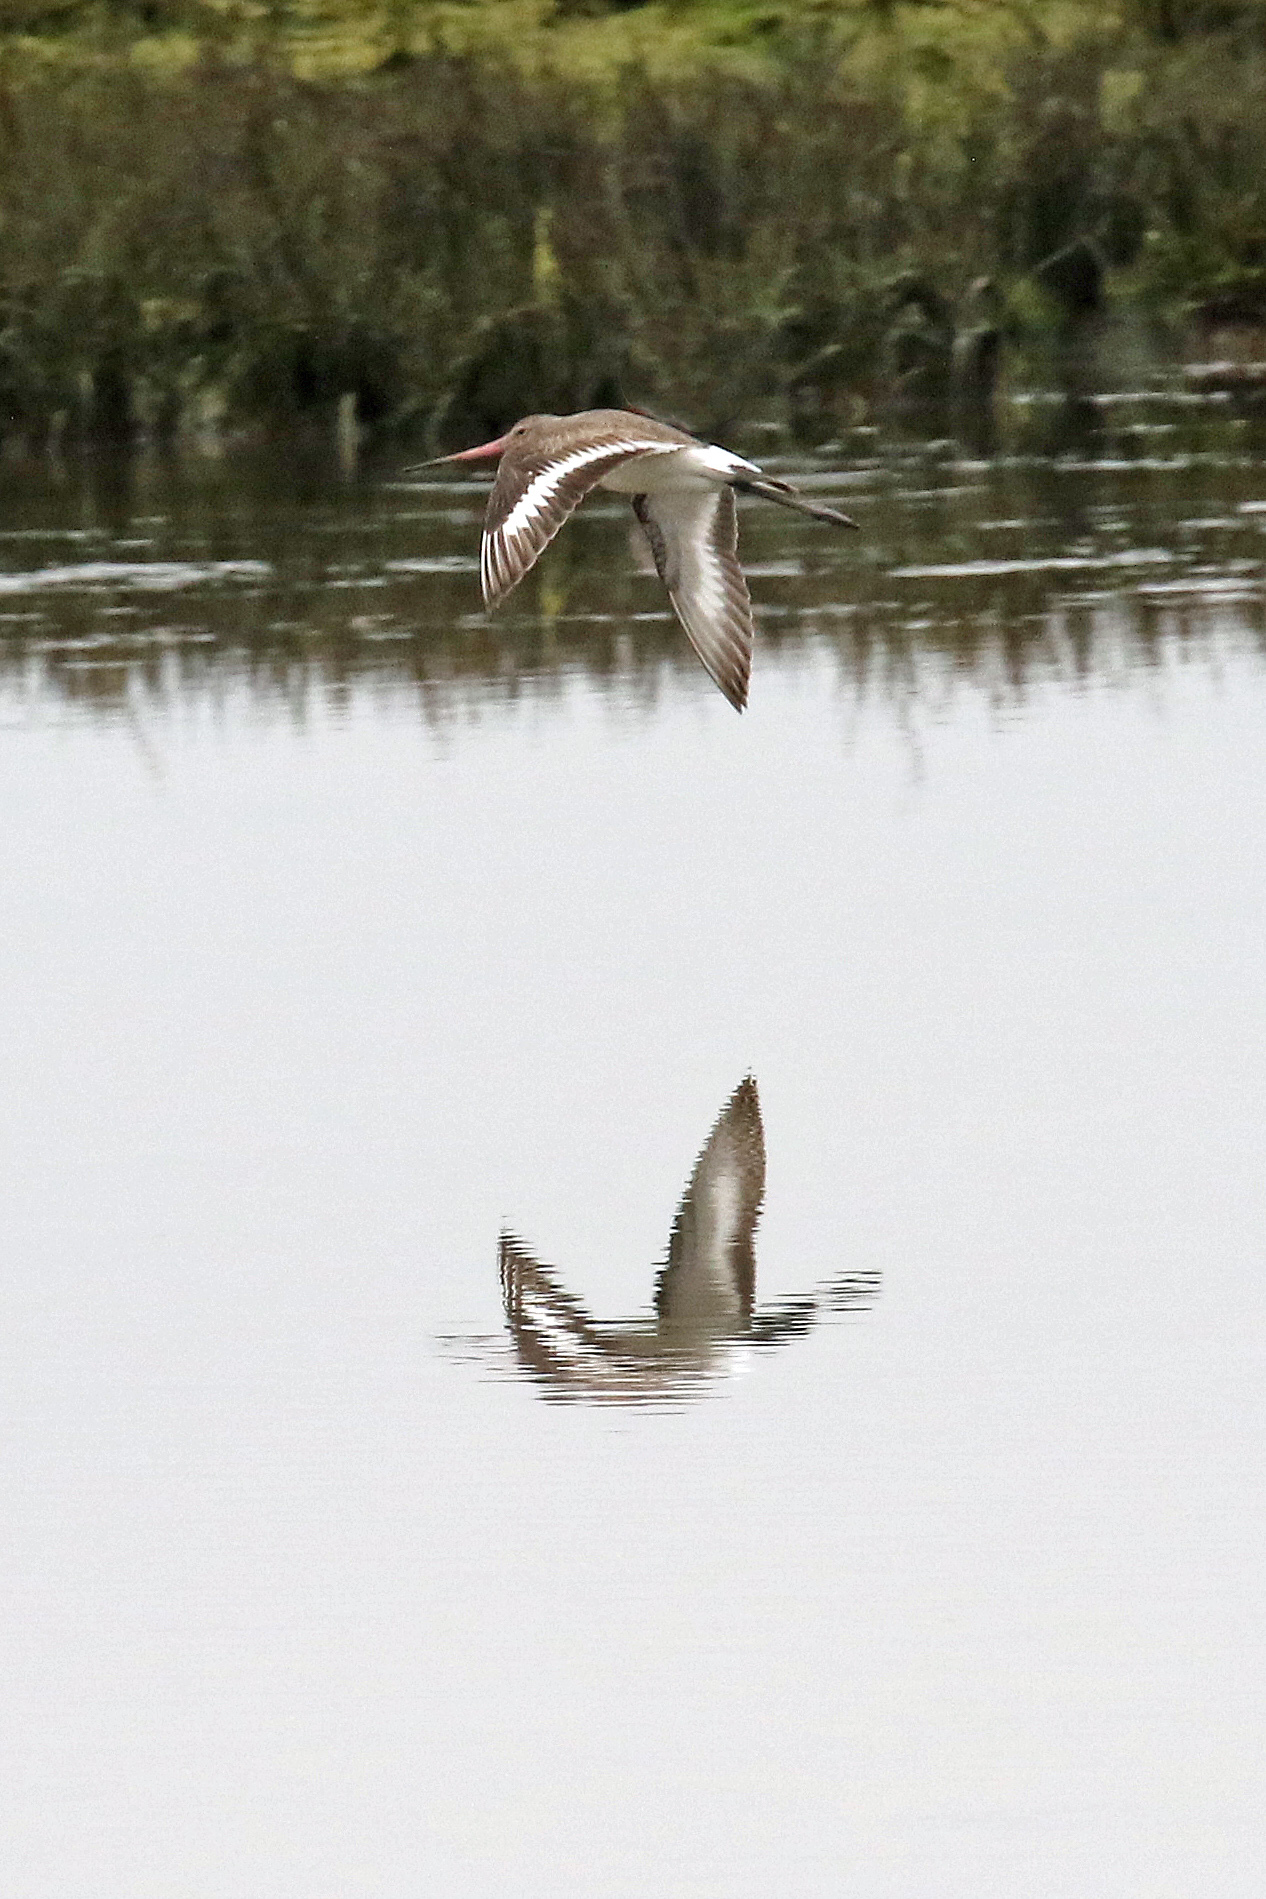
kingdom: Animalia
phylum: Chordata
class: Aves
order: Charadriiformes
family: Scolopacidae
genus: Limosa
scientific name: Limosa limosa
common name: Black-tailed godwit
